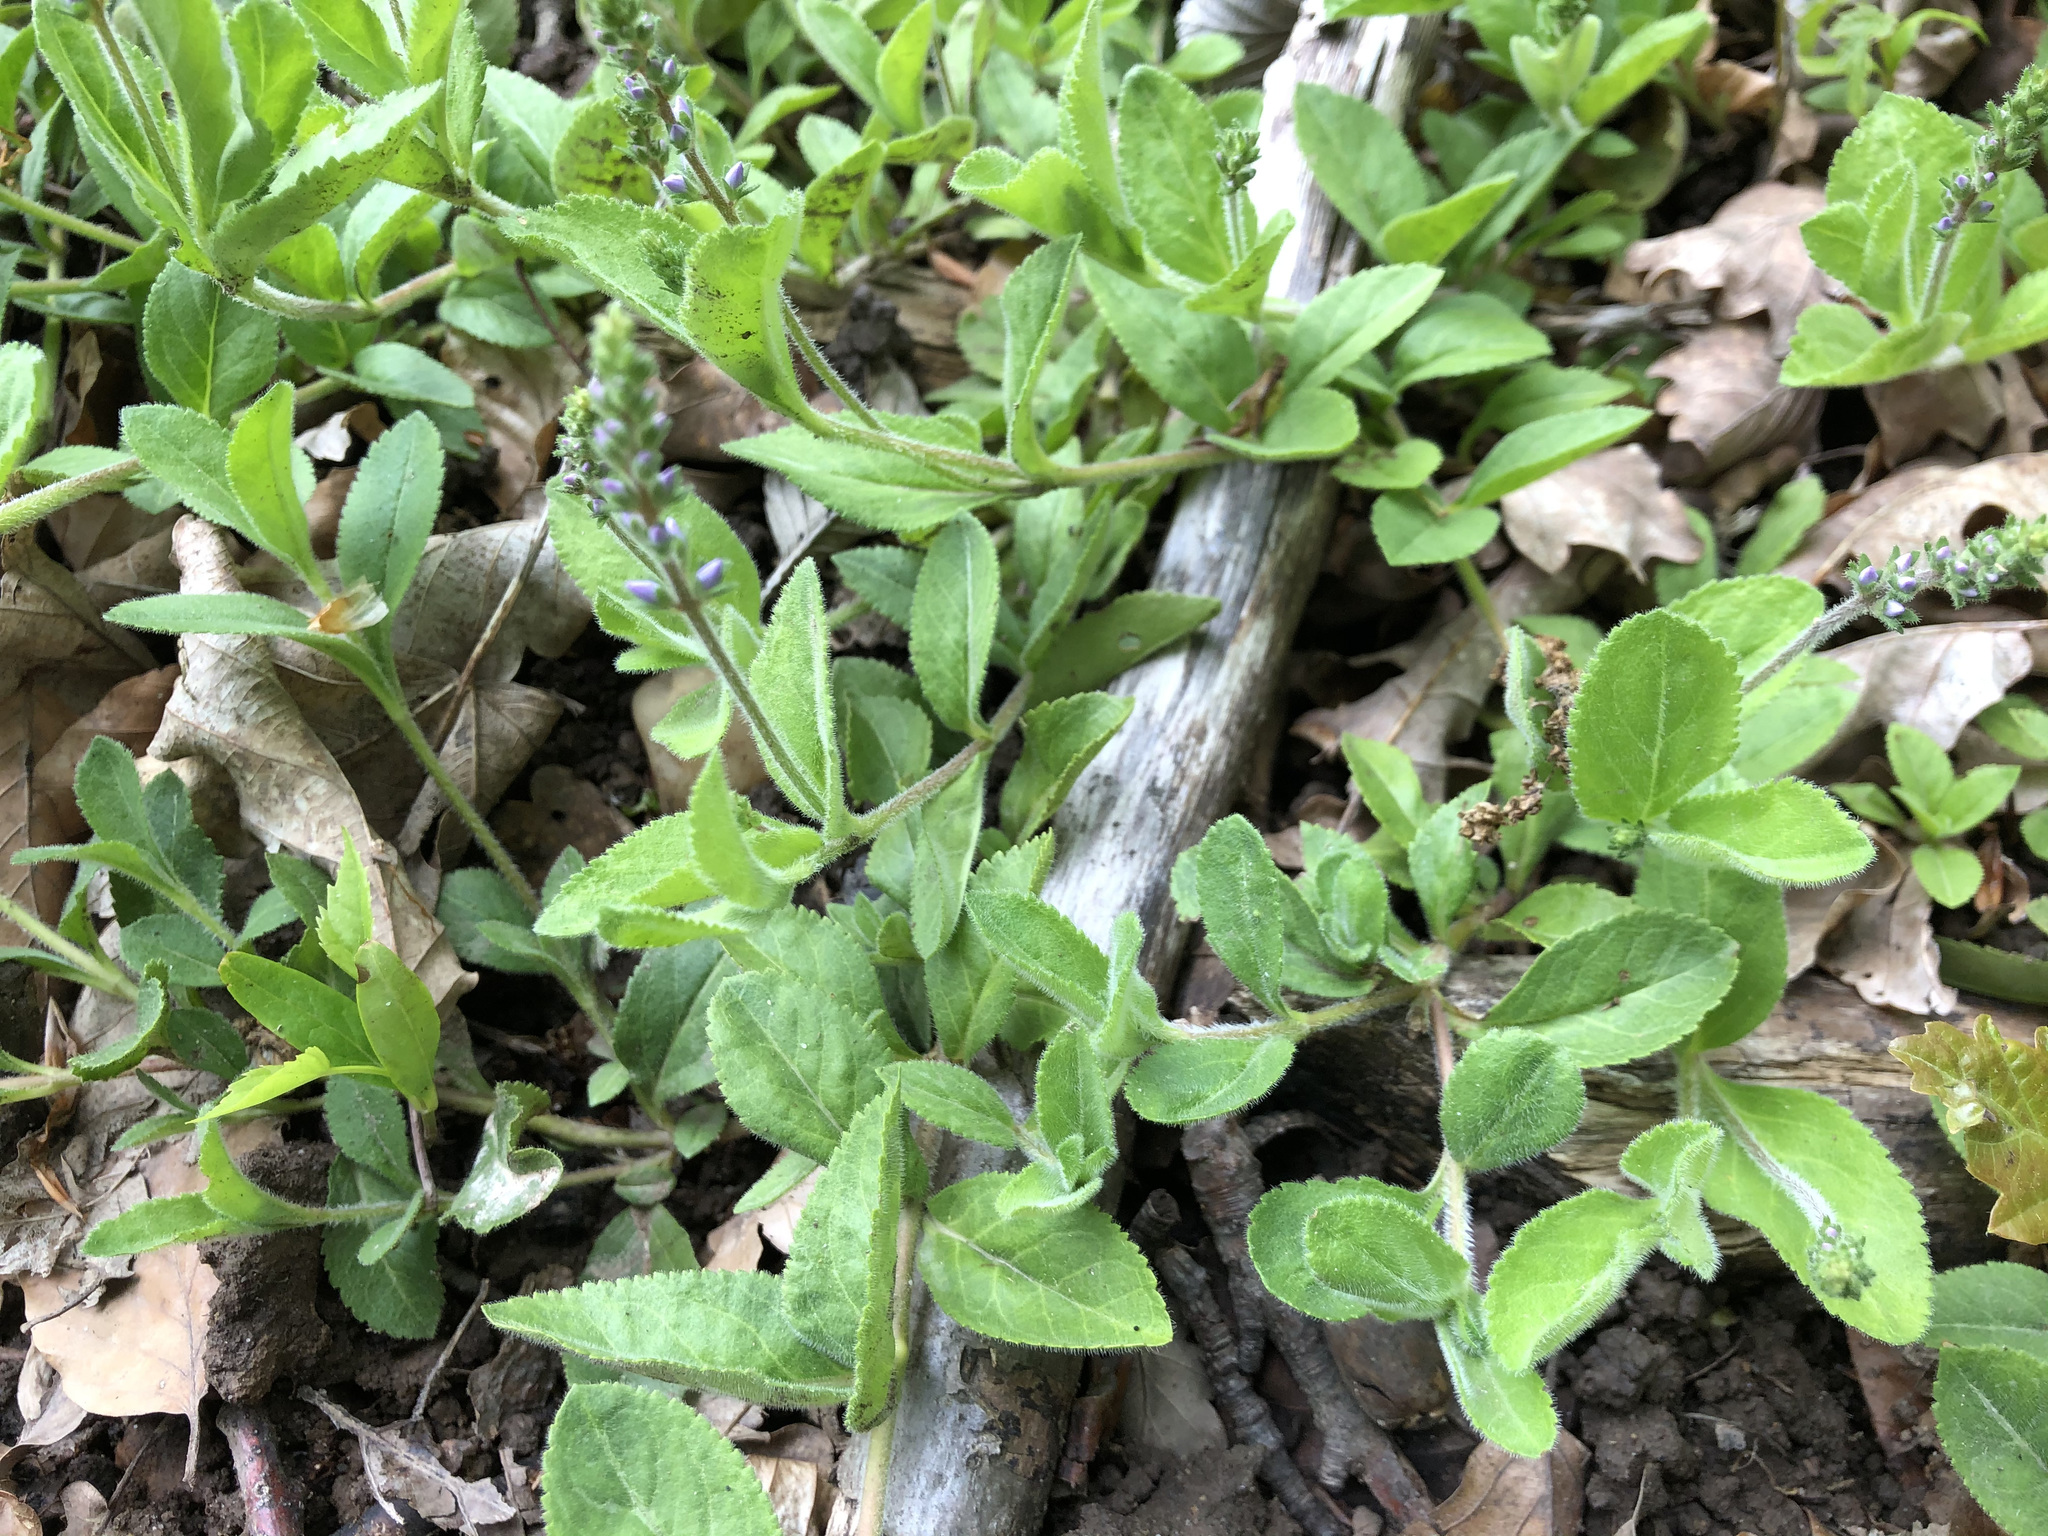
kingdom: Plantae
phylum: Tracheophyta
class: Magnoliopsida
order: Lamiales
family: Plantaginaceae
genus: Veronica
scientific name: Veronica officinalis
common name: Common speedwell
